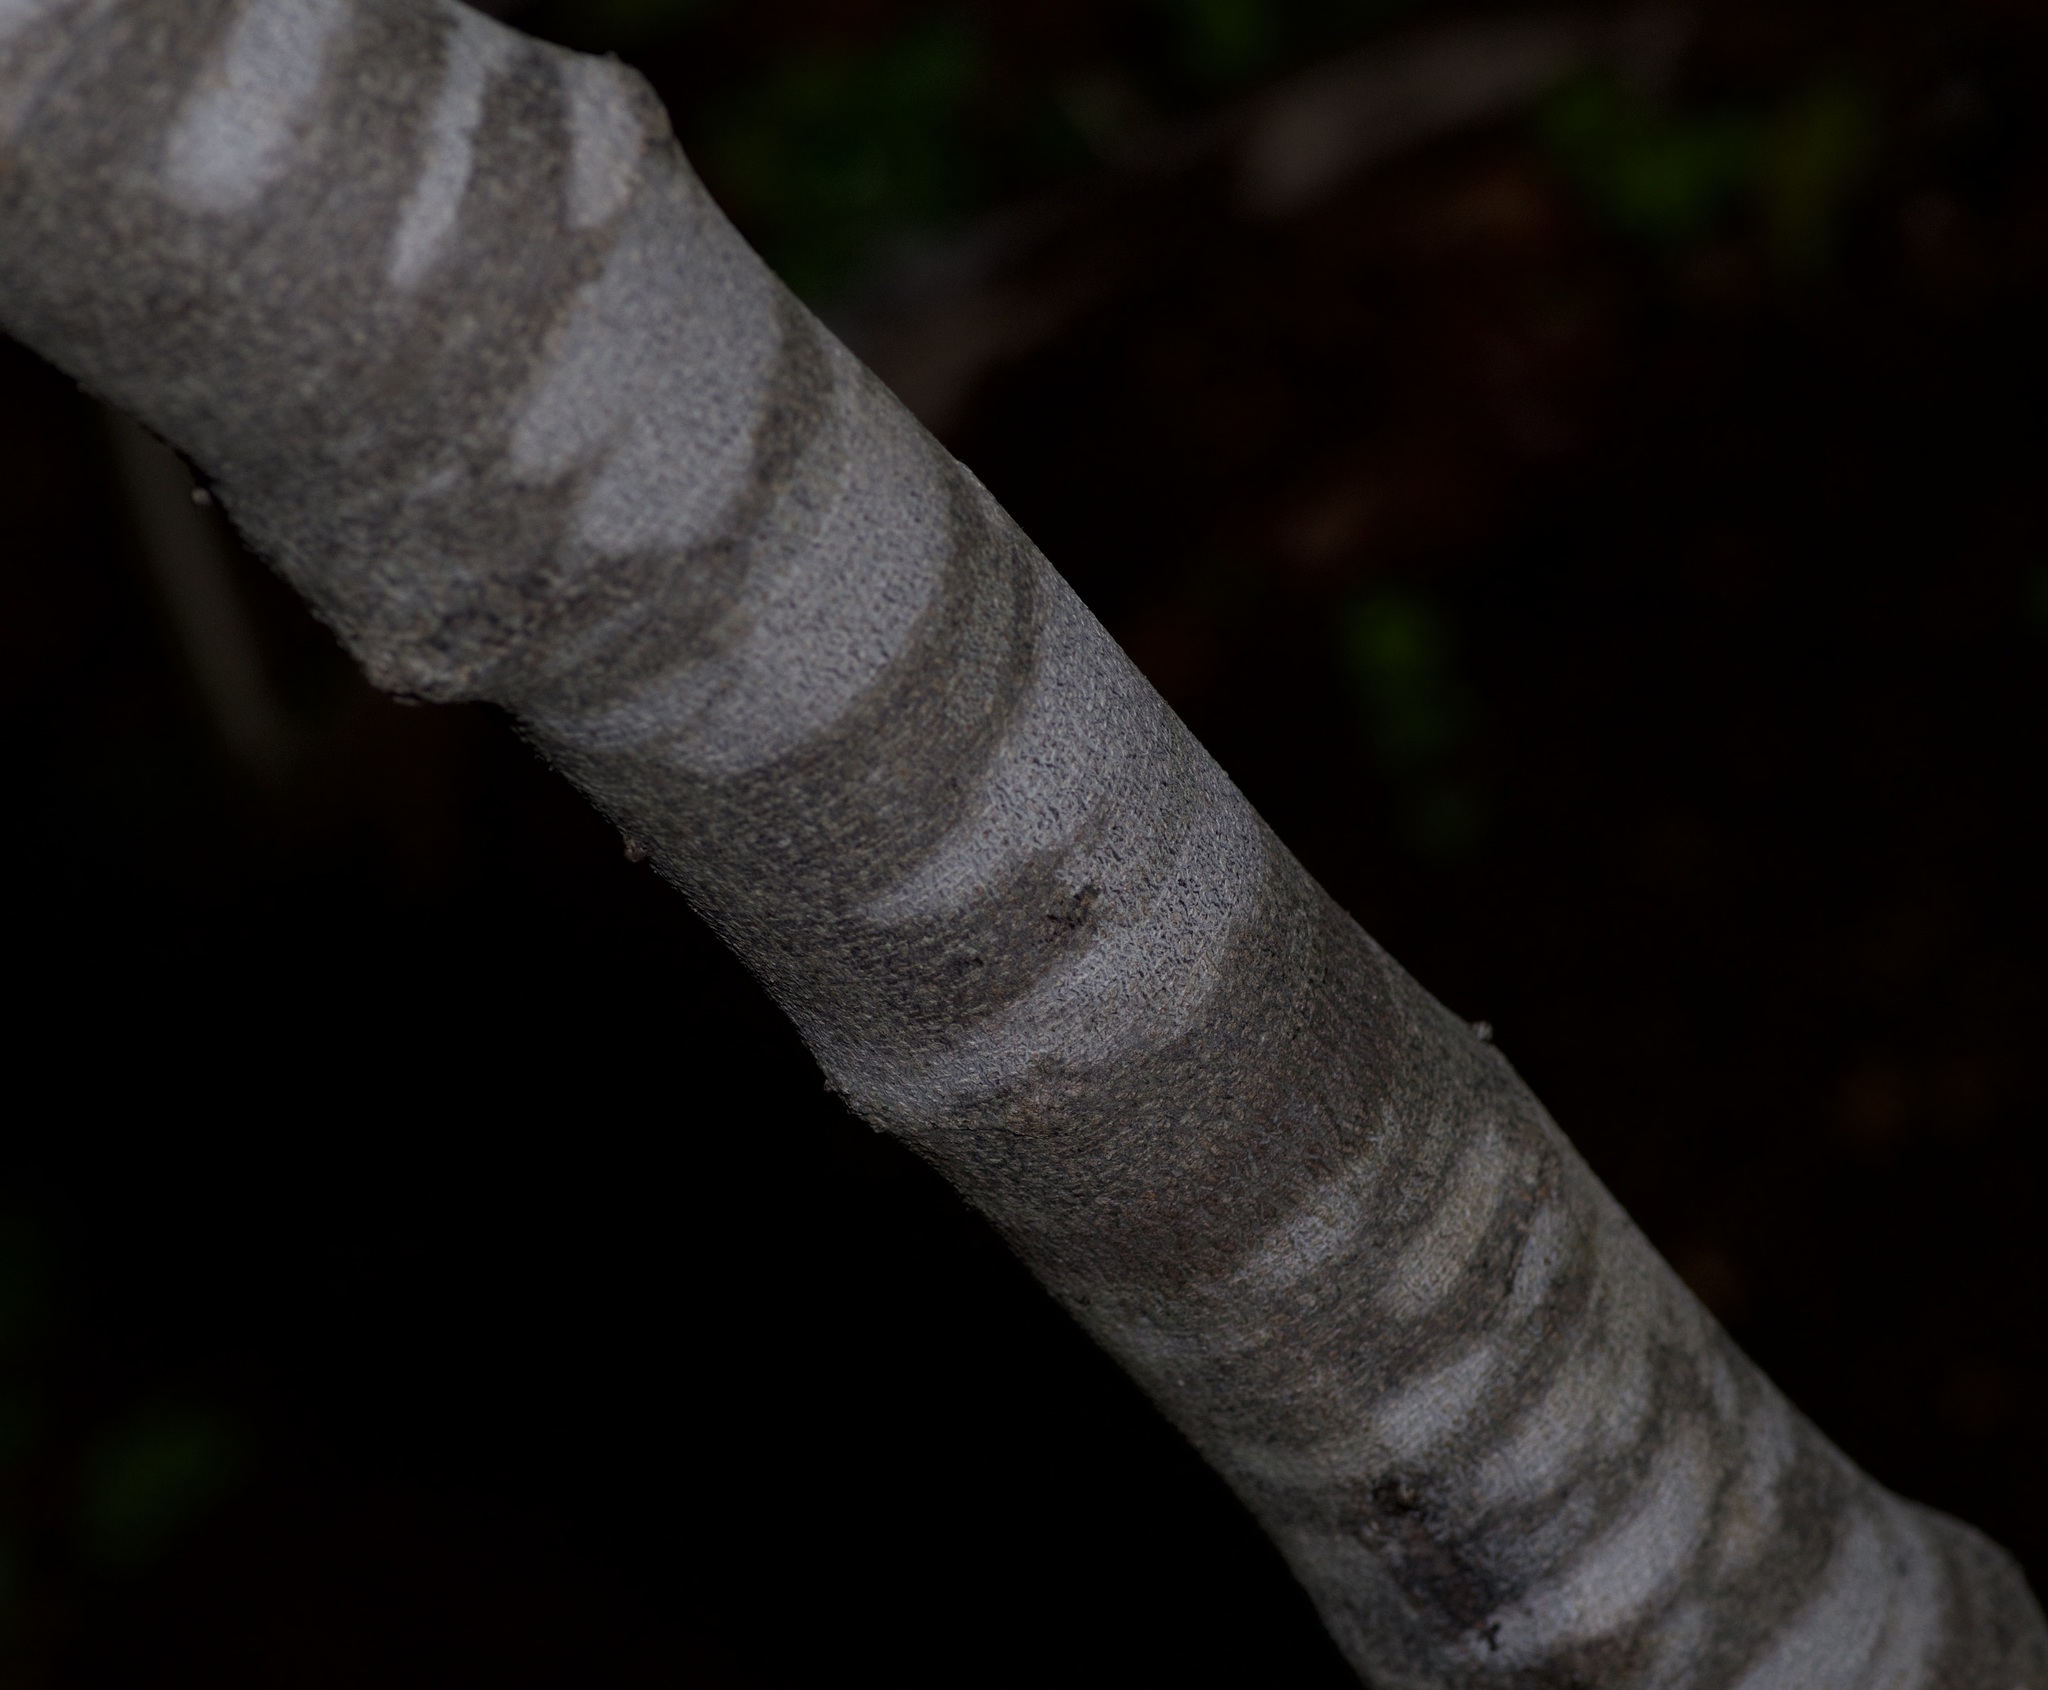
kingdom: Plantae
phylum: Tracheophyta
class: Magnoliopsida
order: Fabales
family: Fabaceae
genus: Cercis
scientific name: Cercis canadensis
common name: Eastern redbud
